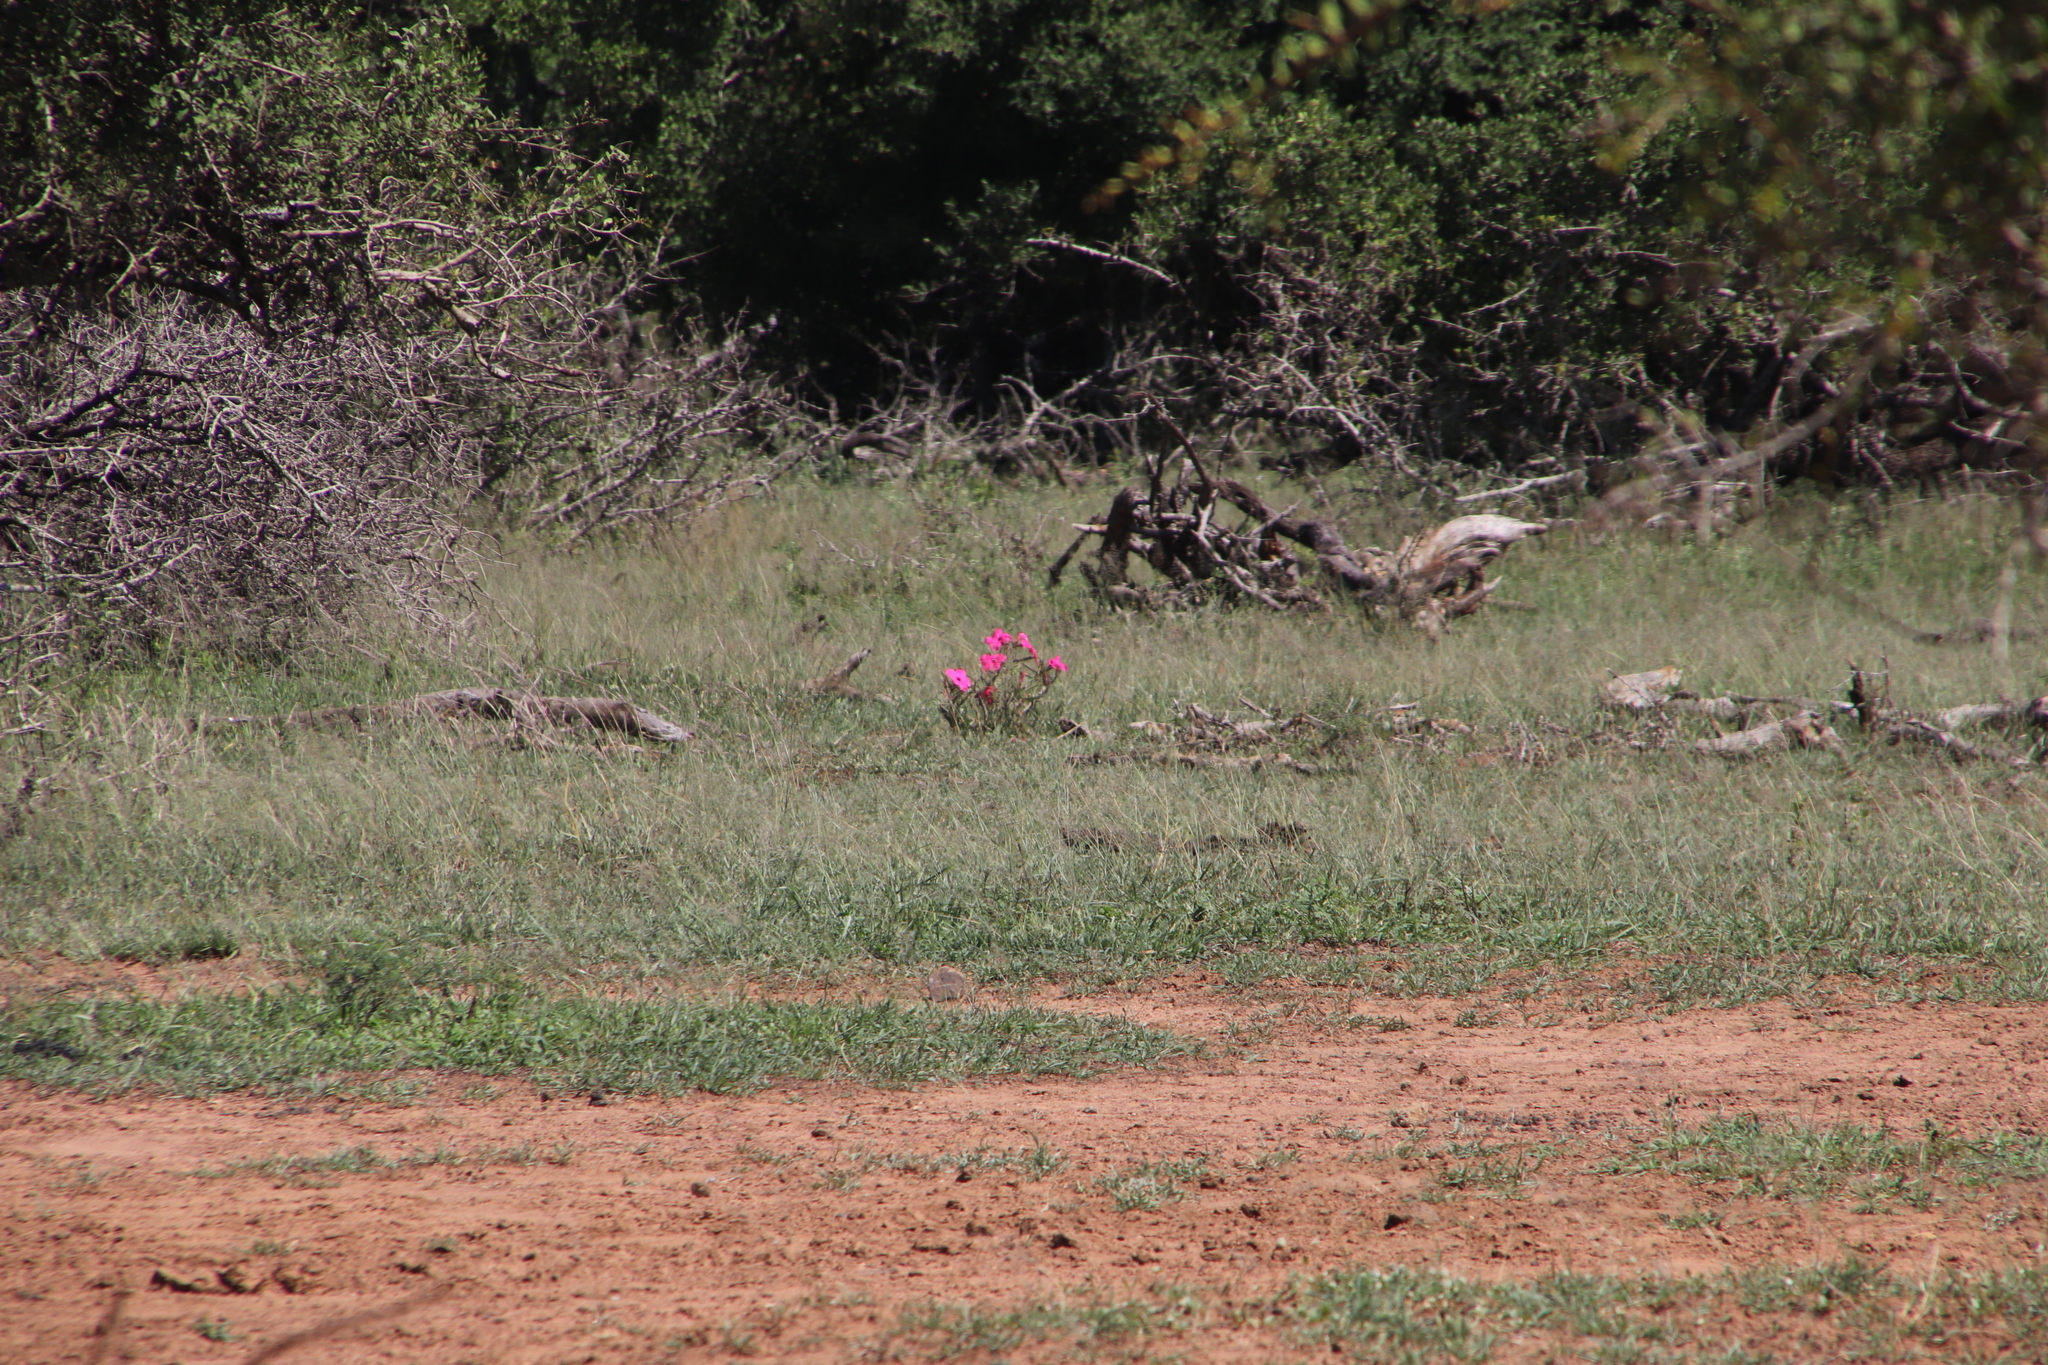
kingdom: Plantae
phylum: Tracheophyta
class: Magnoliopsida
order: Gentianales
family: Apocynaceae
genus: Adenium
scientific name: Adenium obesum
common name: Desert-rose
